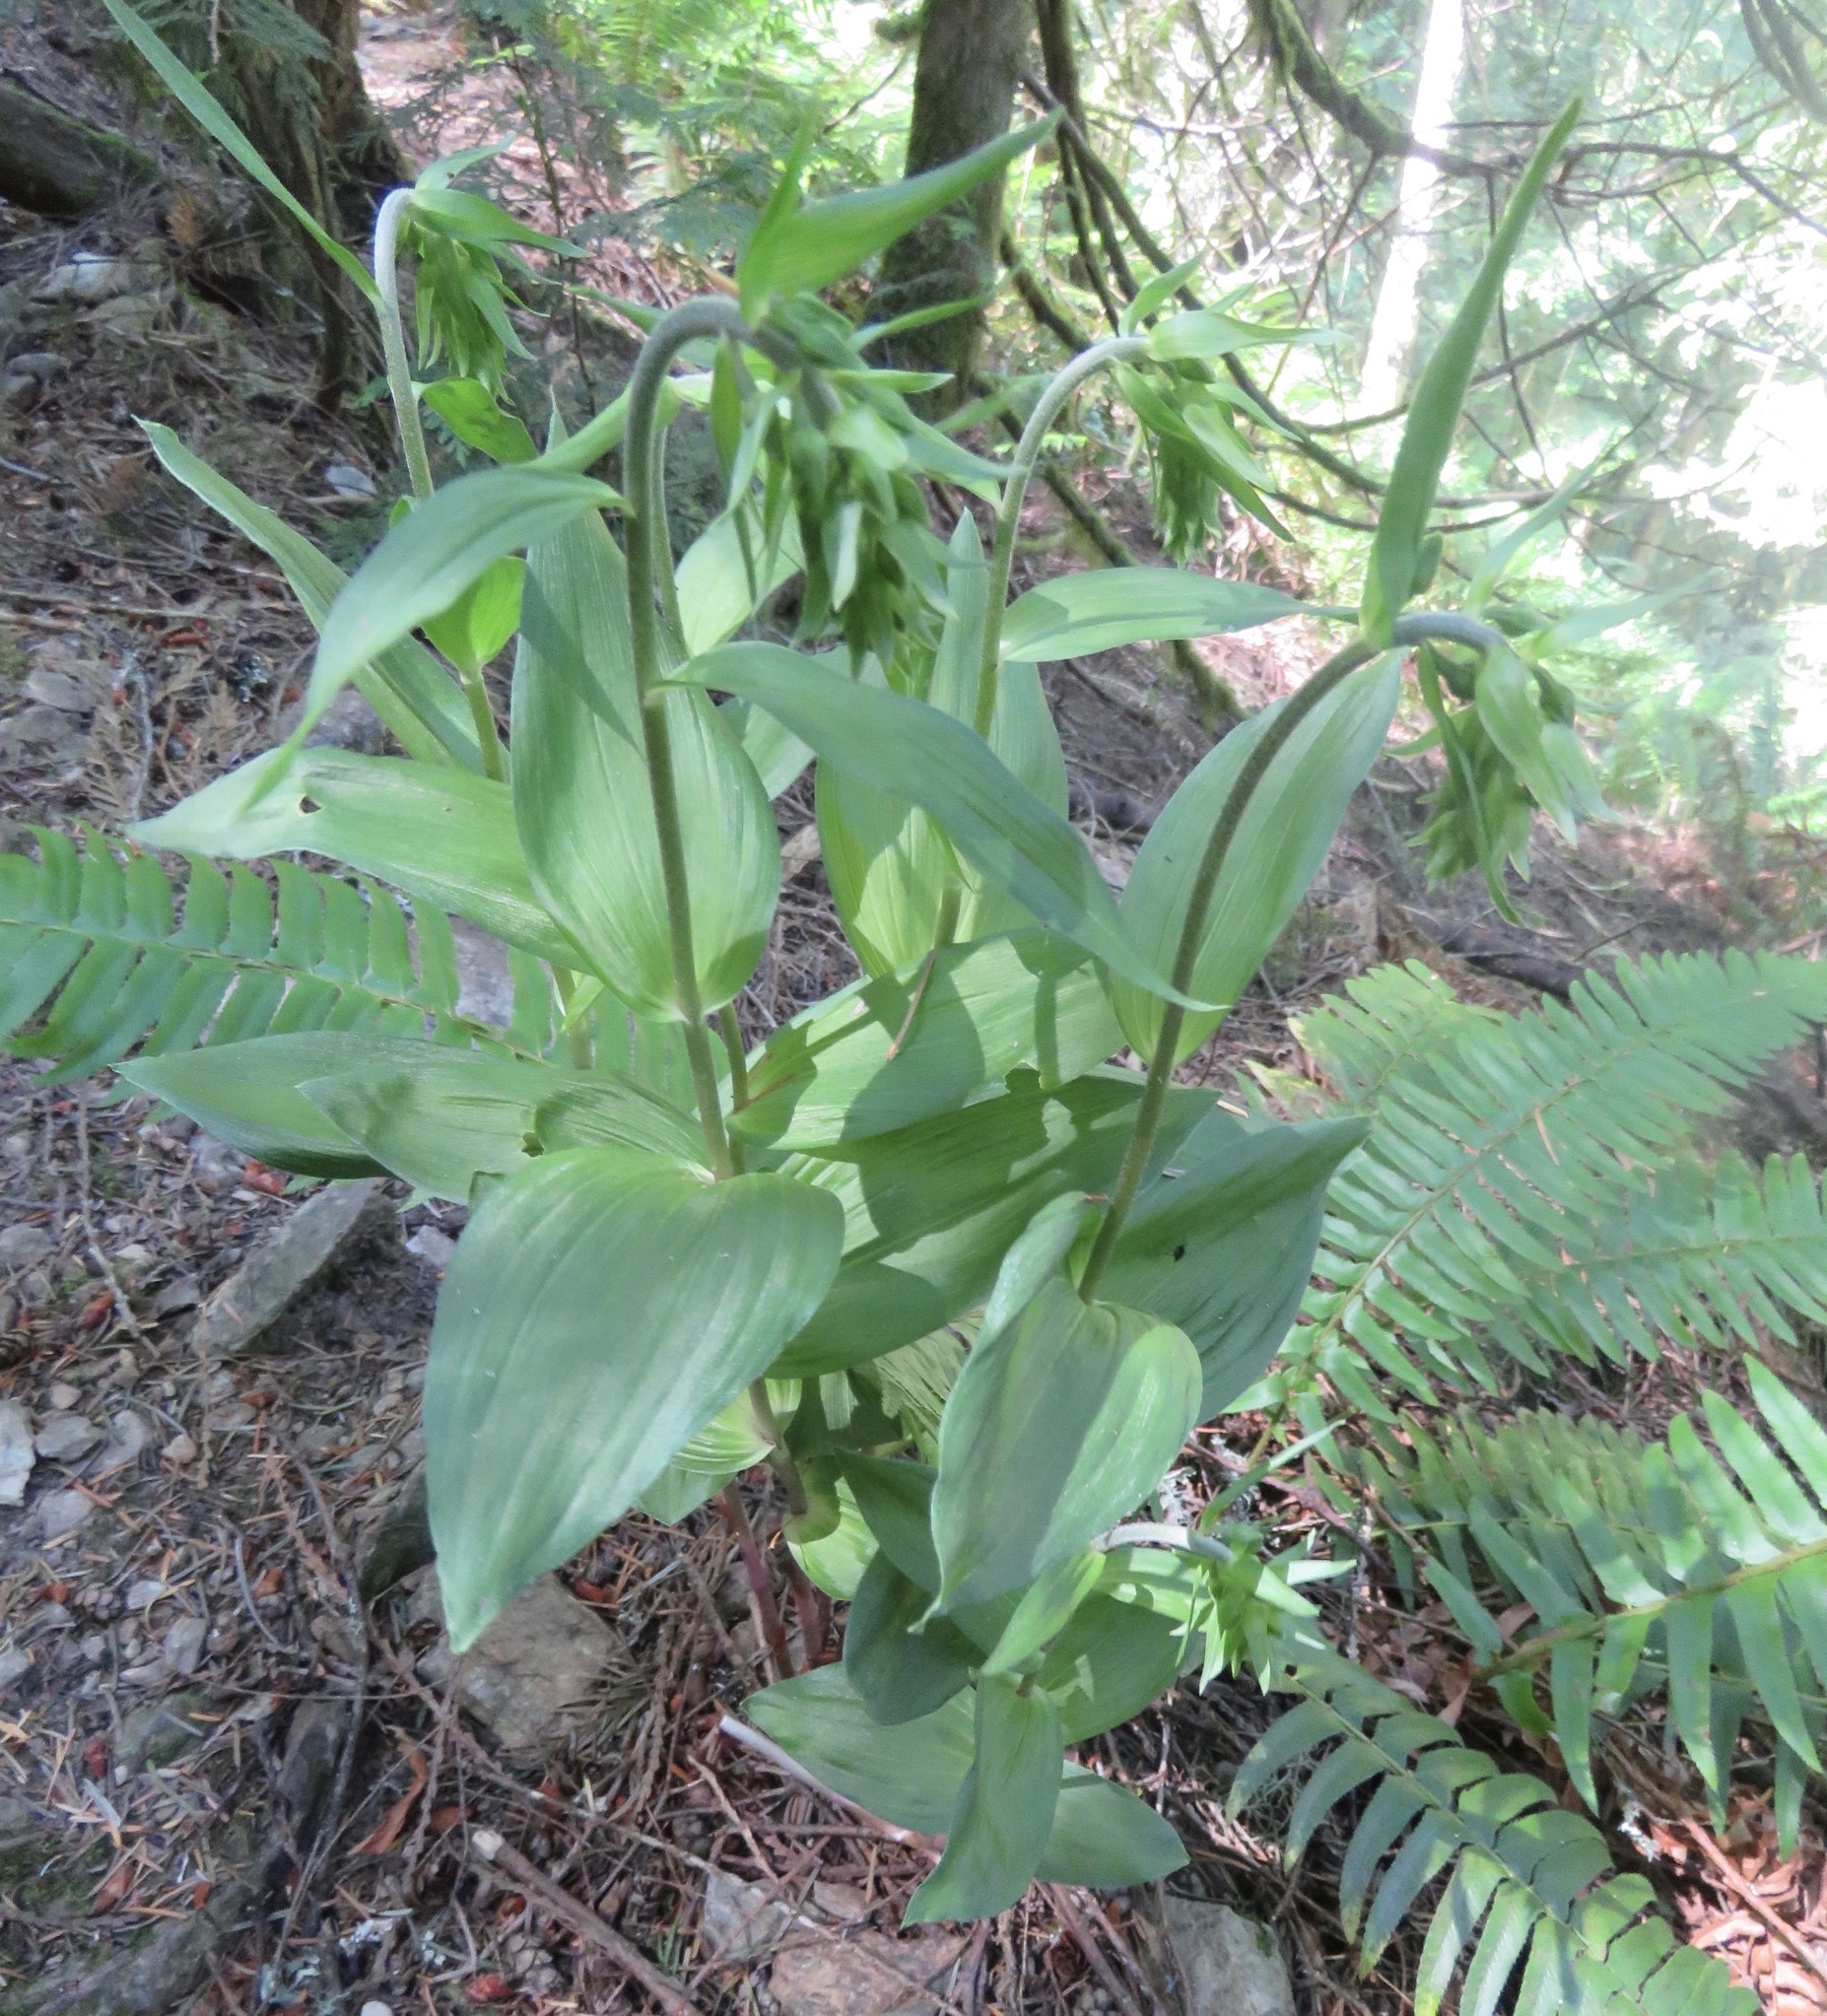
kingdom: Plantae
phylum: Tracheophyta
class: Liliopsida
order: Asparagales
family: Orchidaceae
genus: Epipactis
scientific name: Epipactis helleborine
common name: Broad-leaved helleborine
